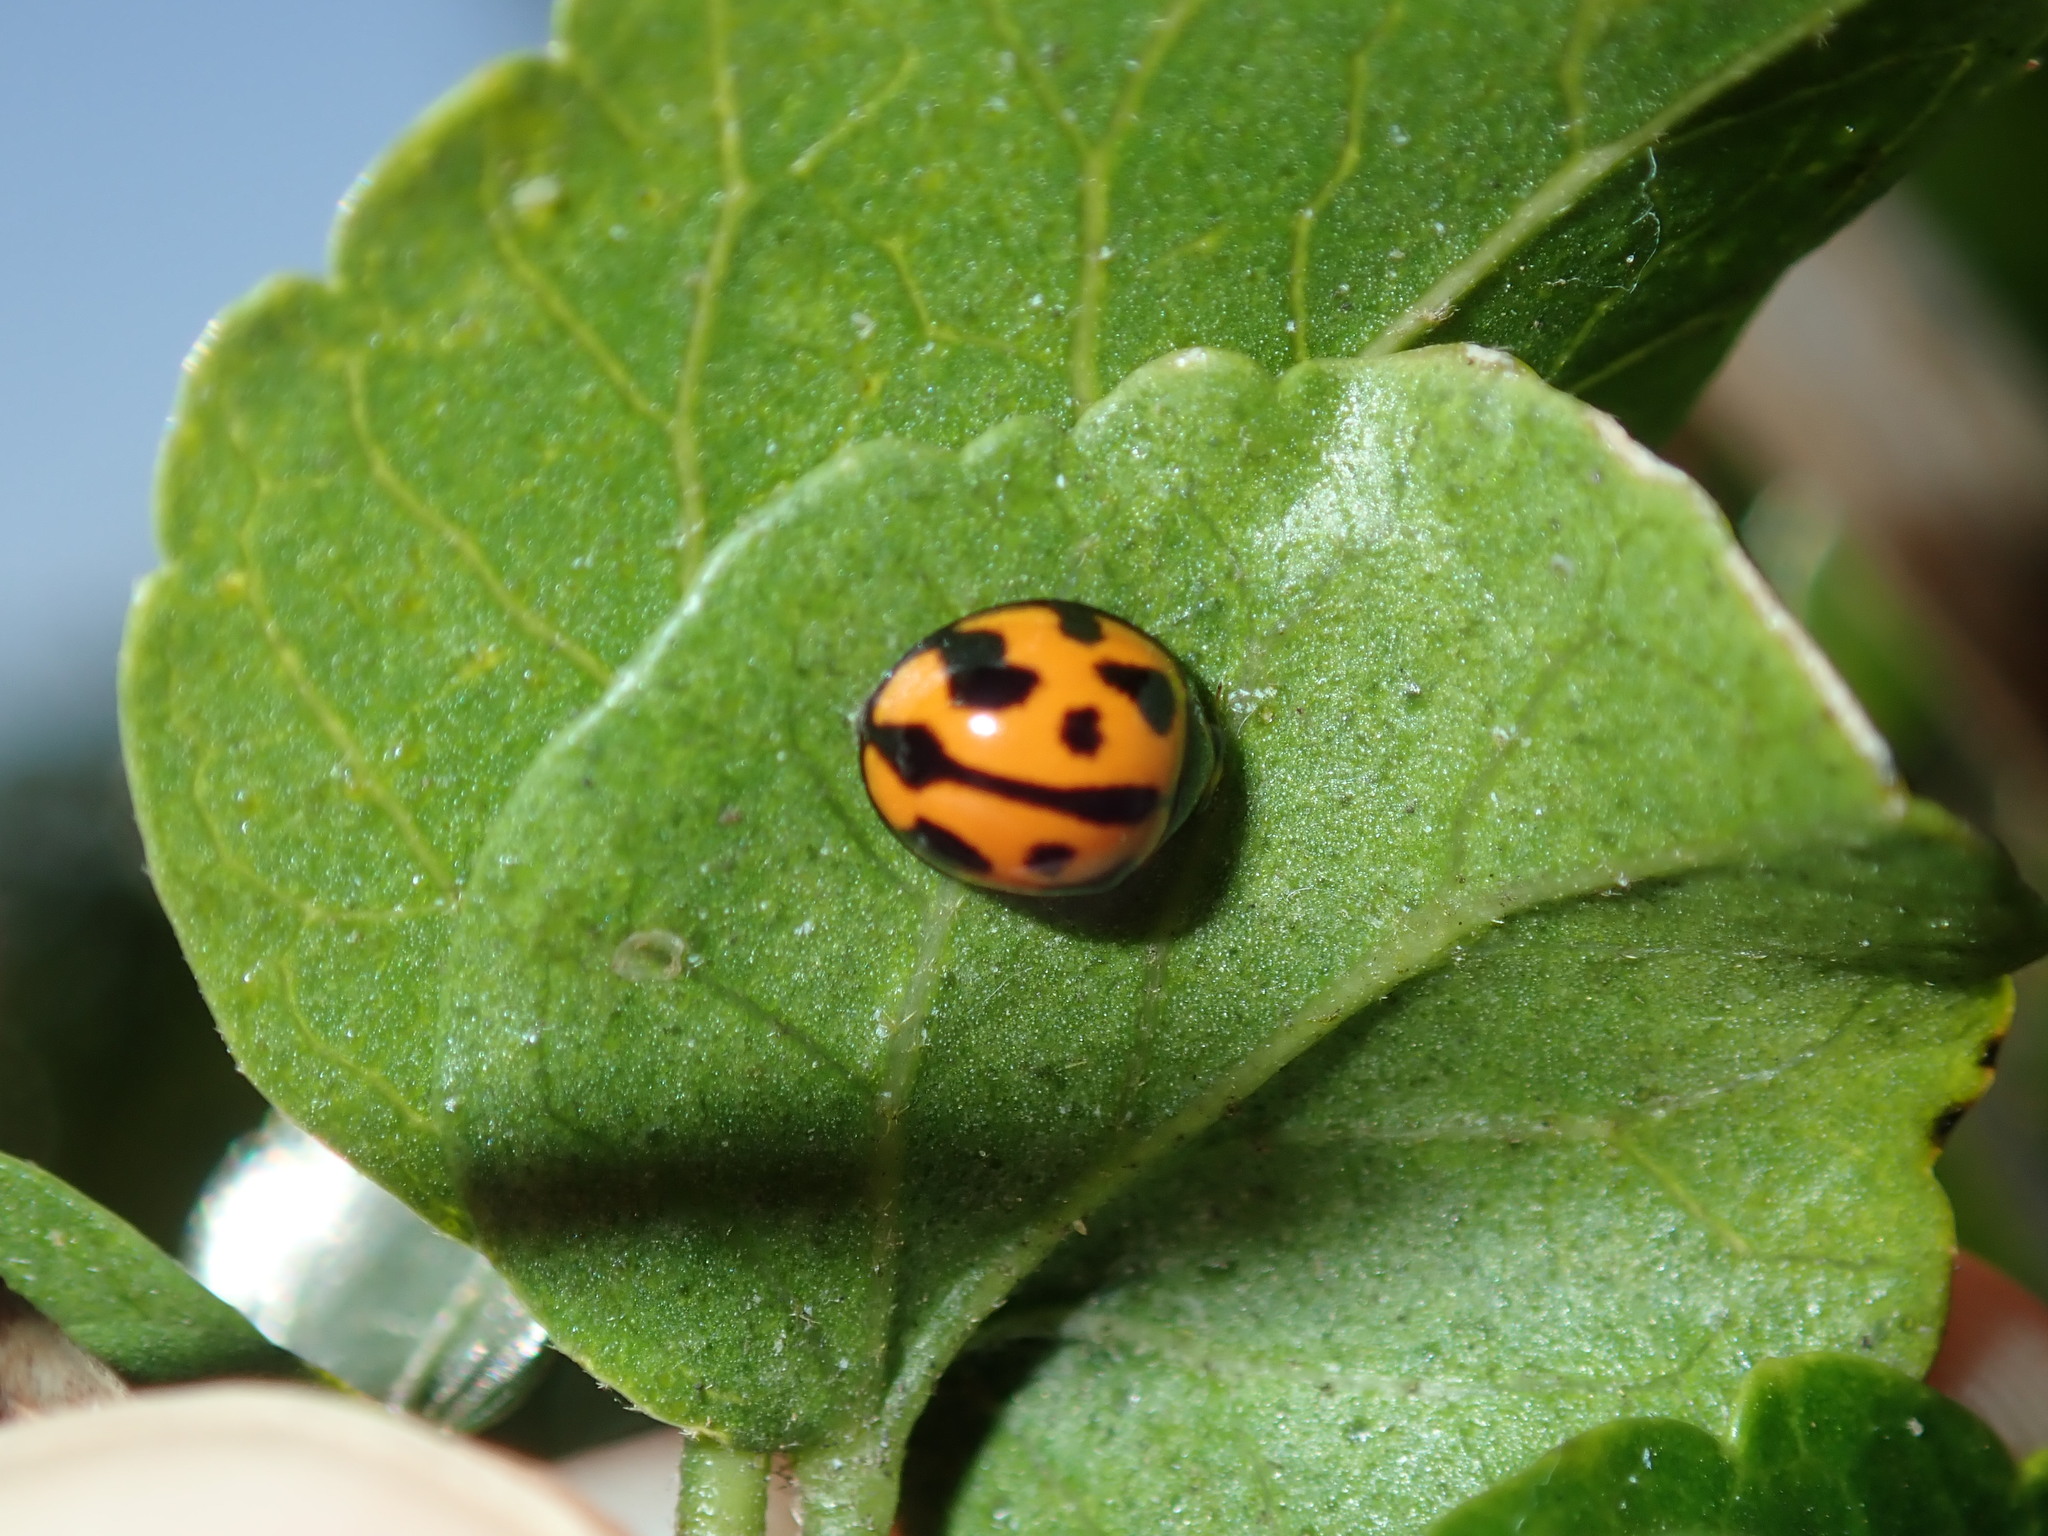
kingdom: Animalia
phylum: Arthropoda
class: Insecta
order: Coleoptera
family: Coccinellidae
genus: Coelophora
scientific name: Coelophora inaequalis
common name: Common australian lady beetle
